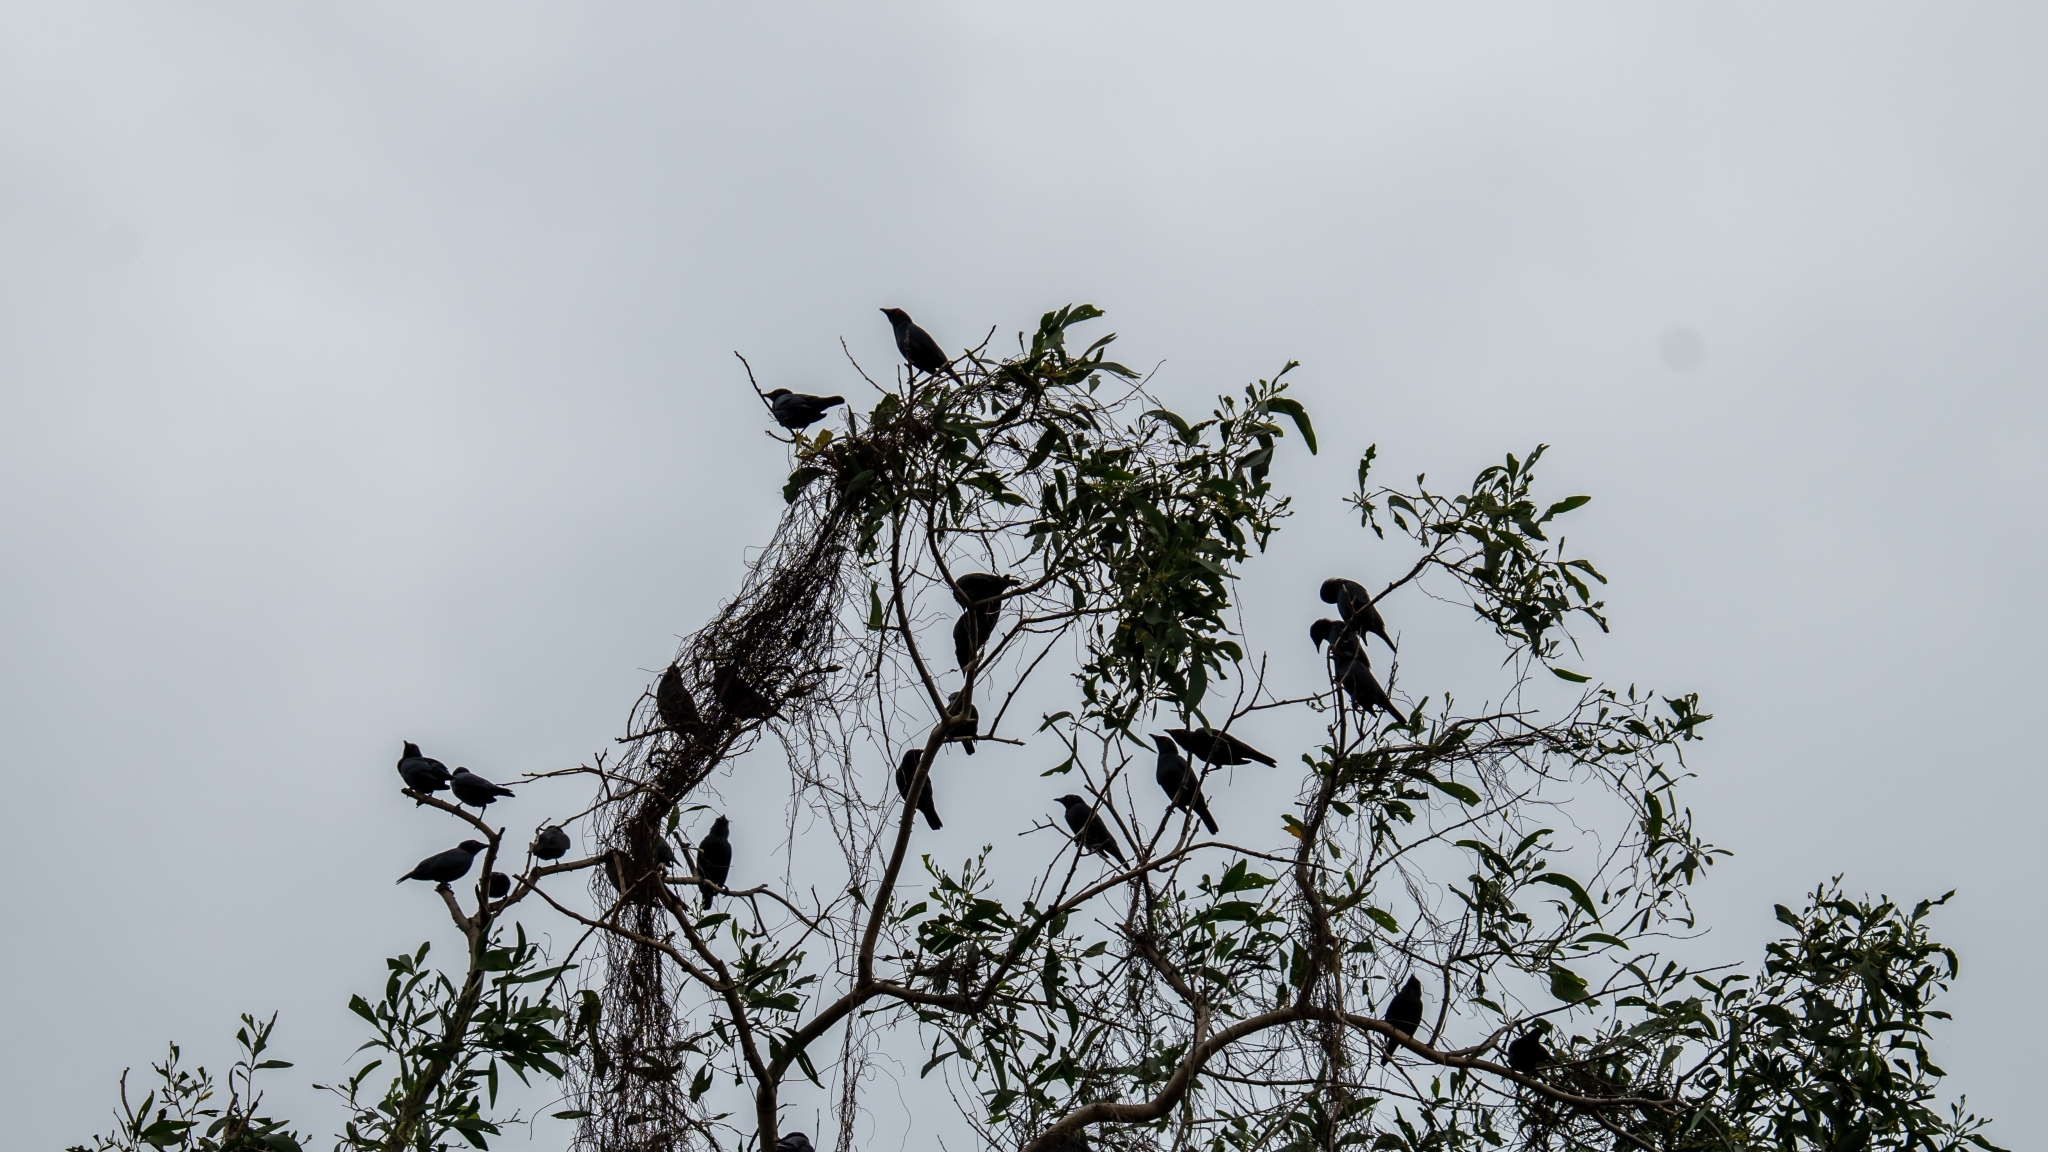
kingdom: Animalia
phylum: Chordata
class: Aves
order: Passeriformes
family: Sturnidae
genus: Aplonis
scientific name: Aplonis panayensis
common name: Asian glossy starling
